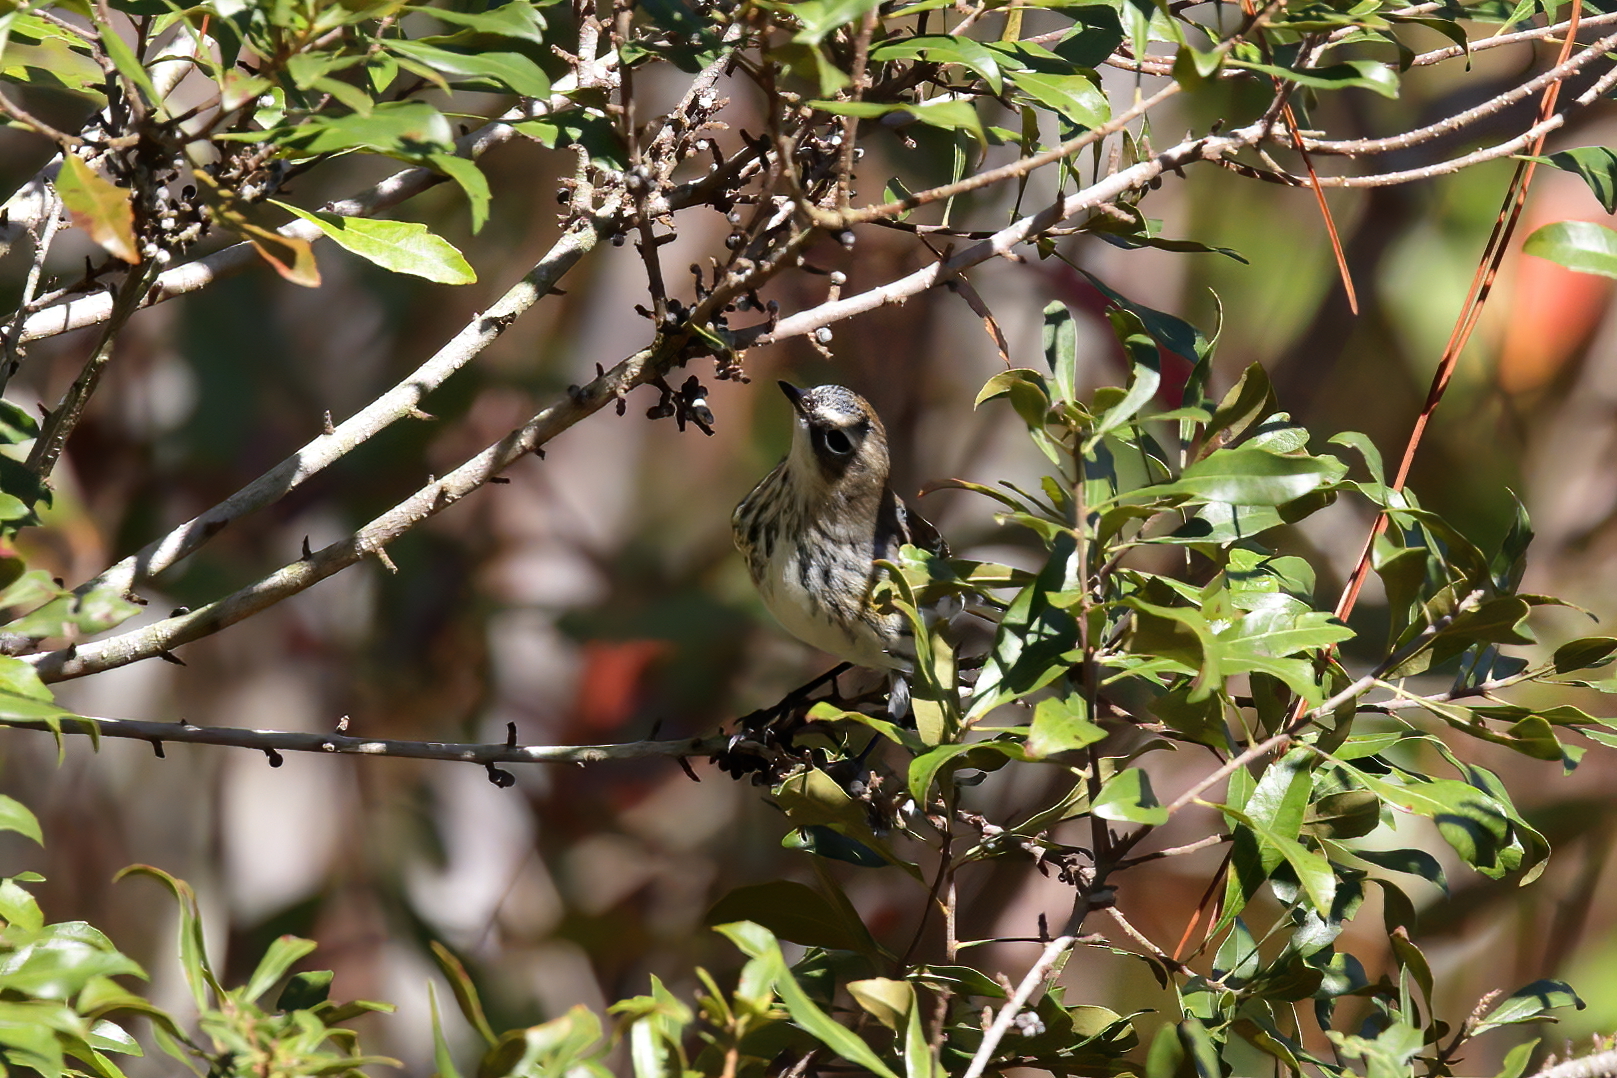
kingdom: Animalia
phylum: Chordata
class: Aves
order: Passeriformes
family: Parulidae
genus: Setophaga
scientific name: Setophaga coronata
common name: Myrtle warbler
